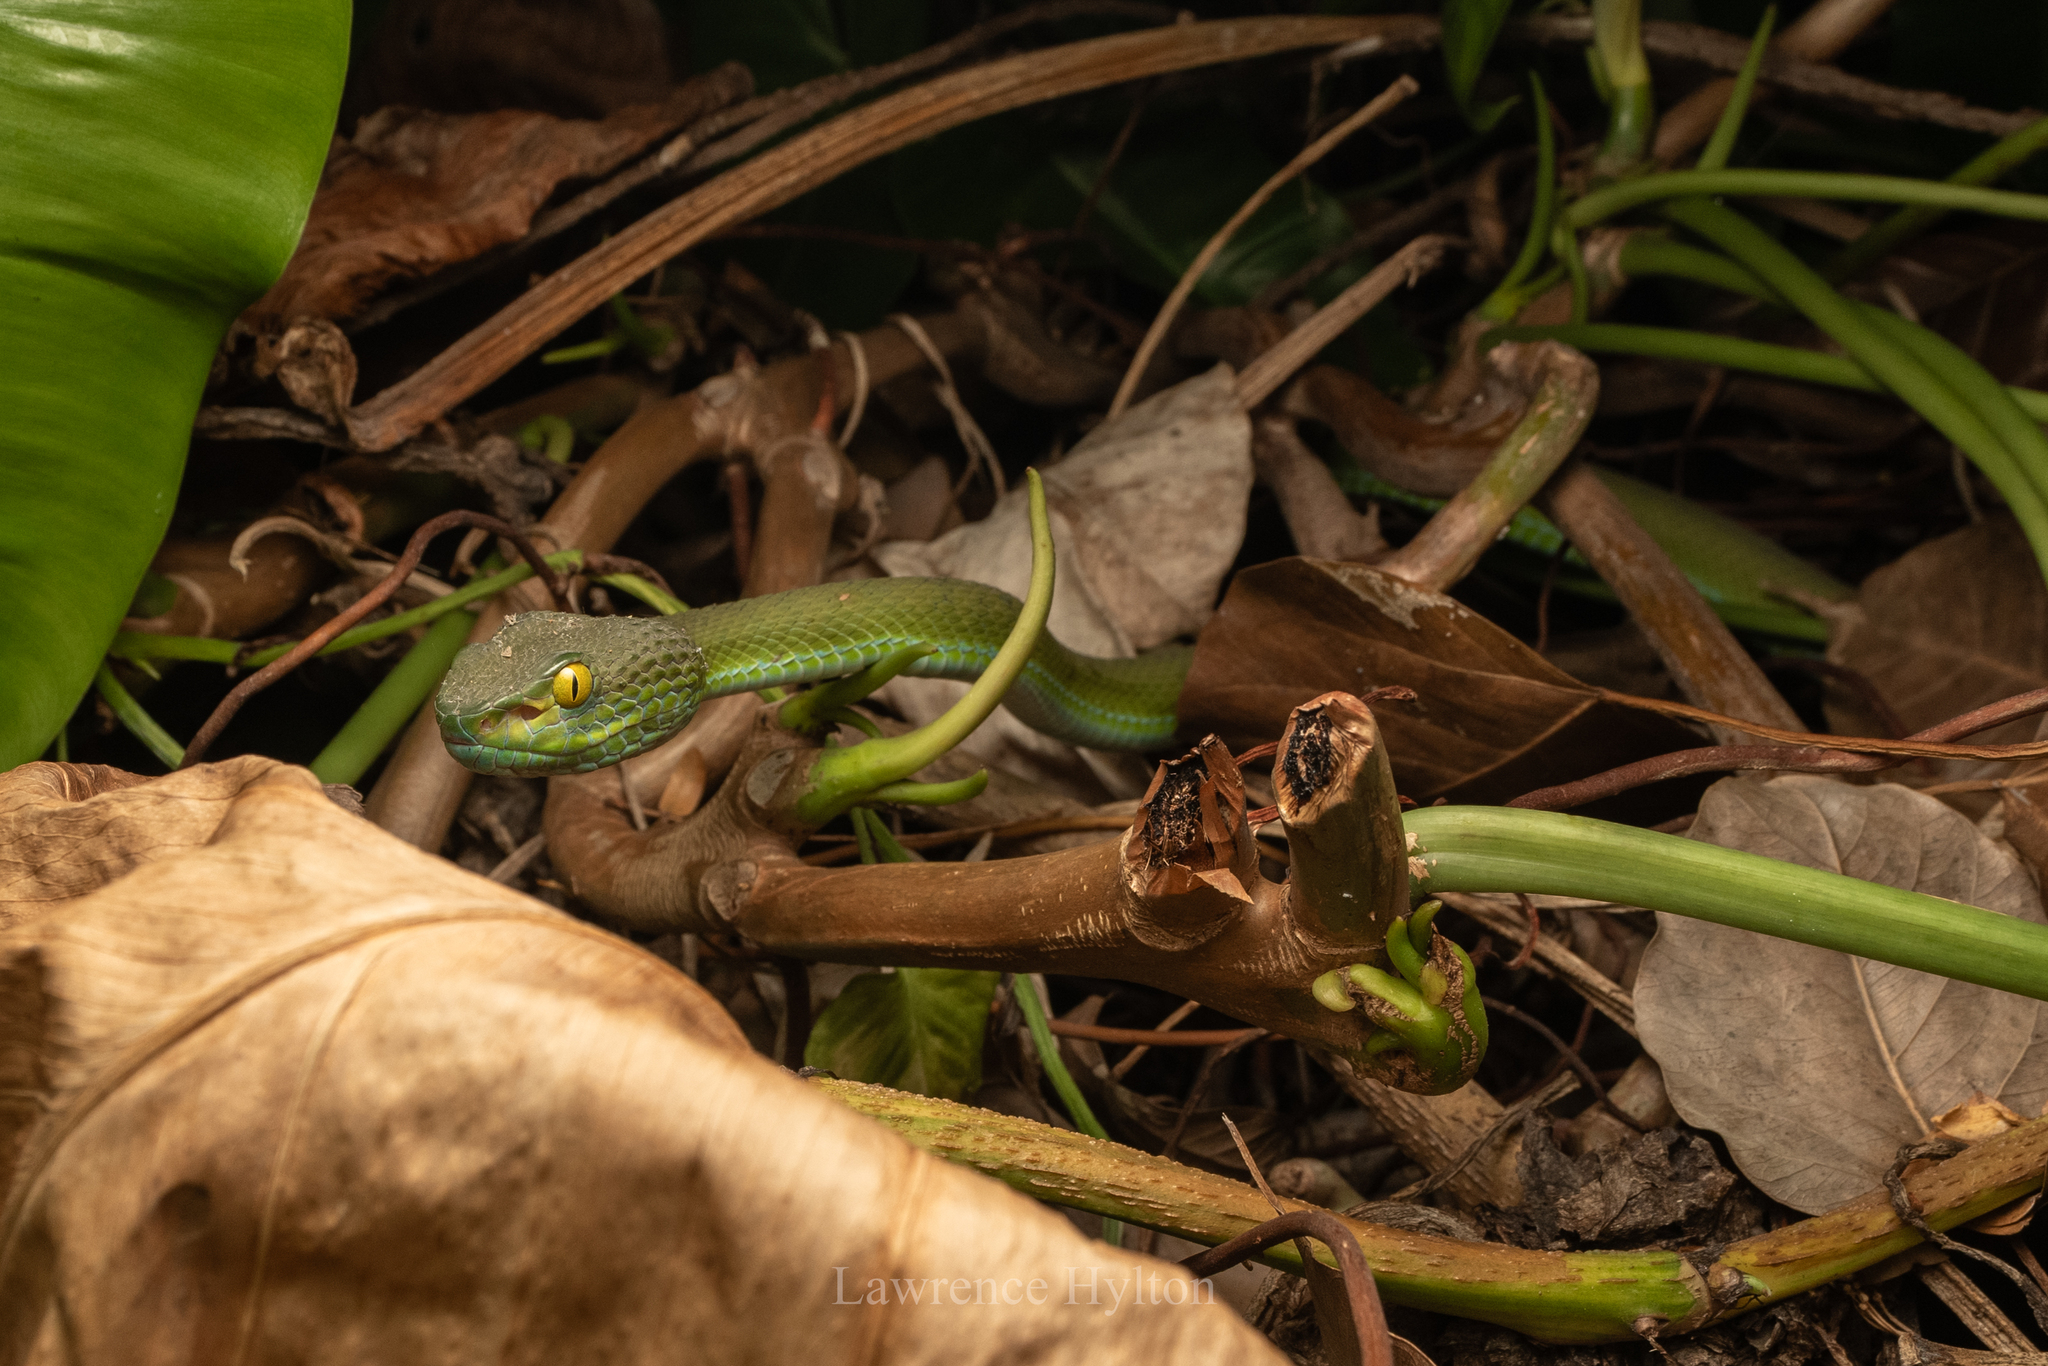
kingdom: Animalia
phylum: Chordata
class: Squamata
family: Viperidae
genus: Trimeresurus
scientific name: Trimeresurus macrops
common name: Kramer's pit viper
